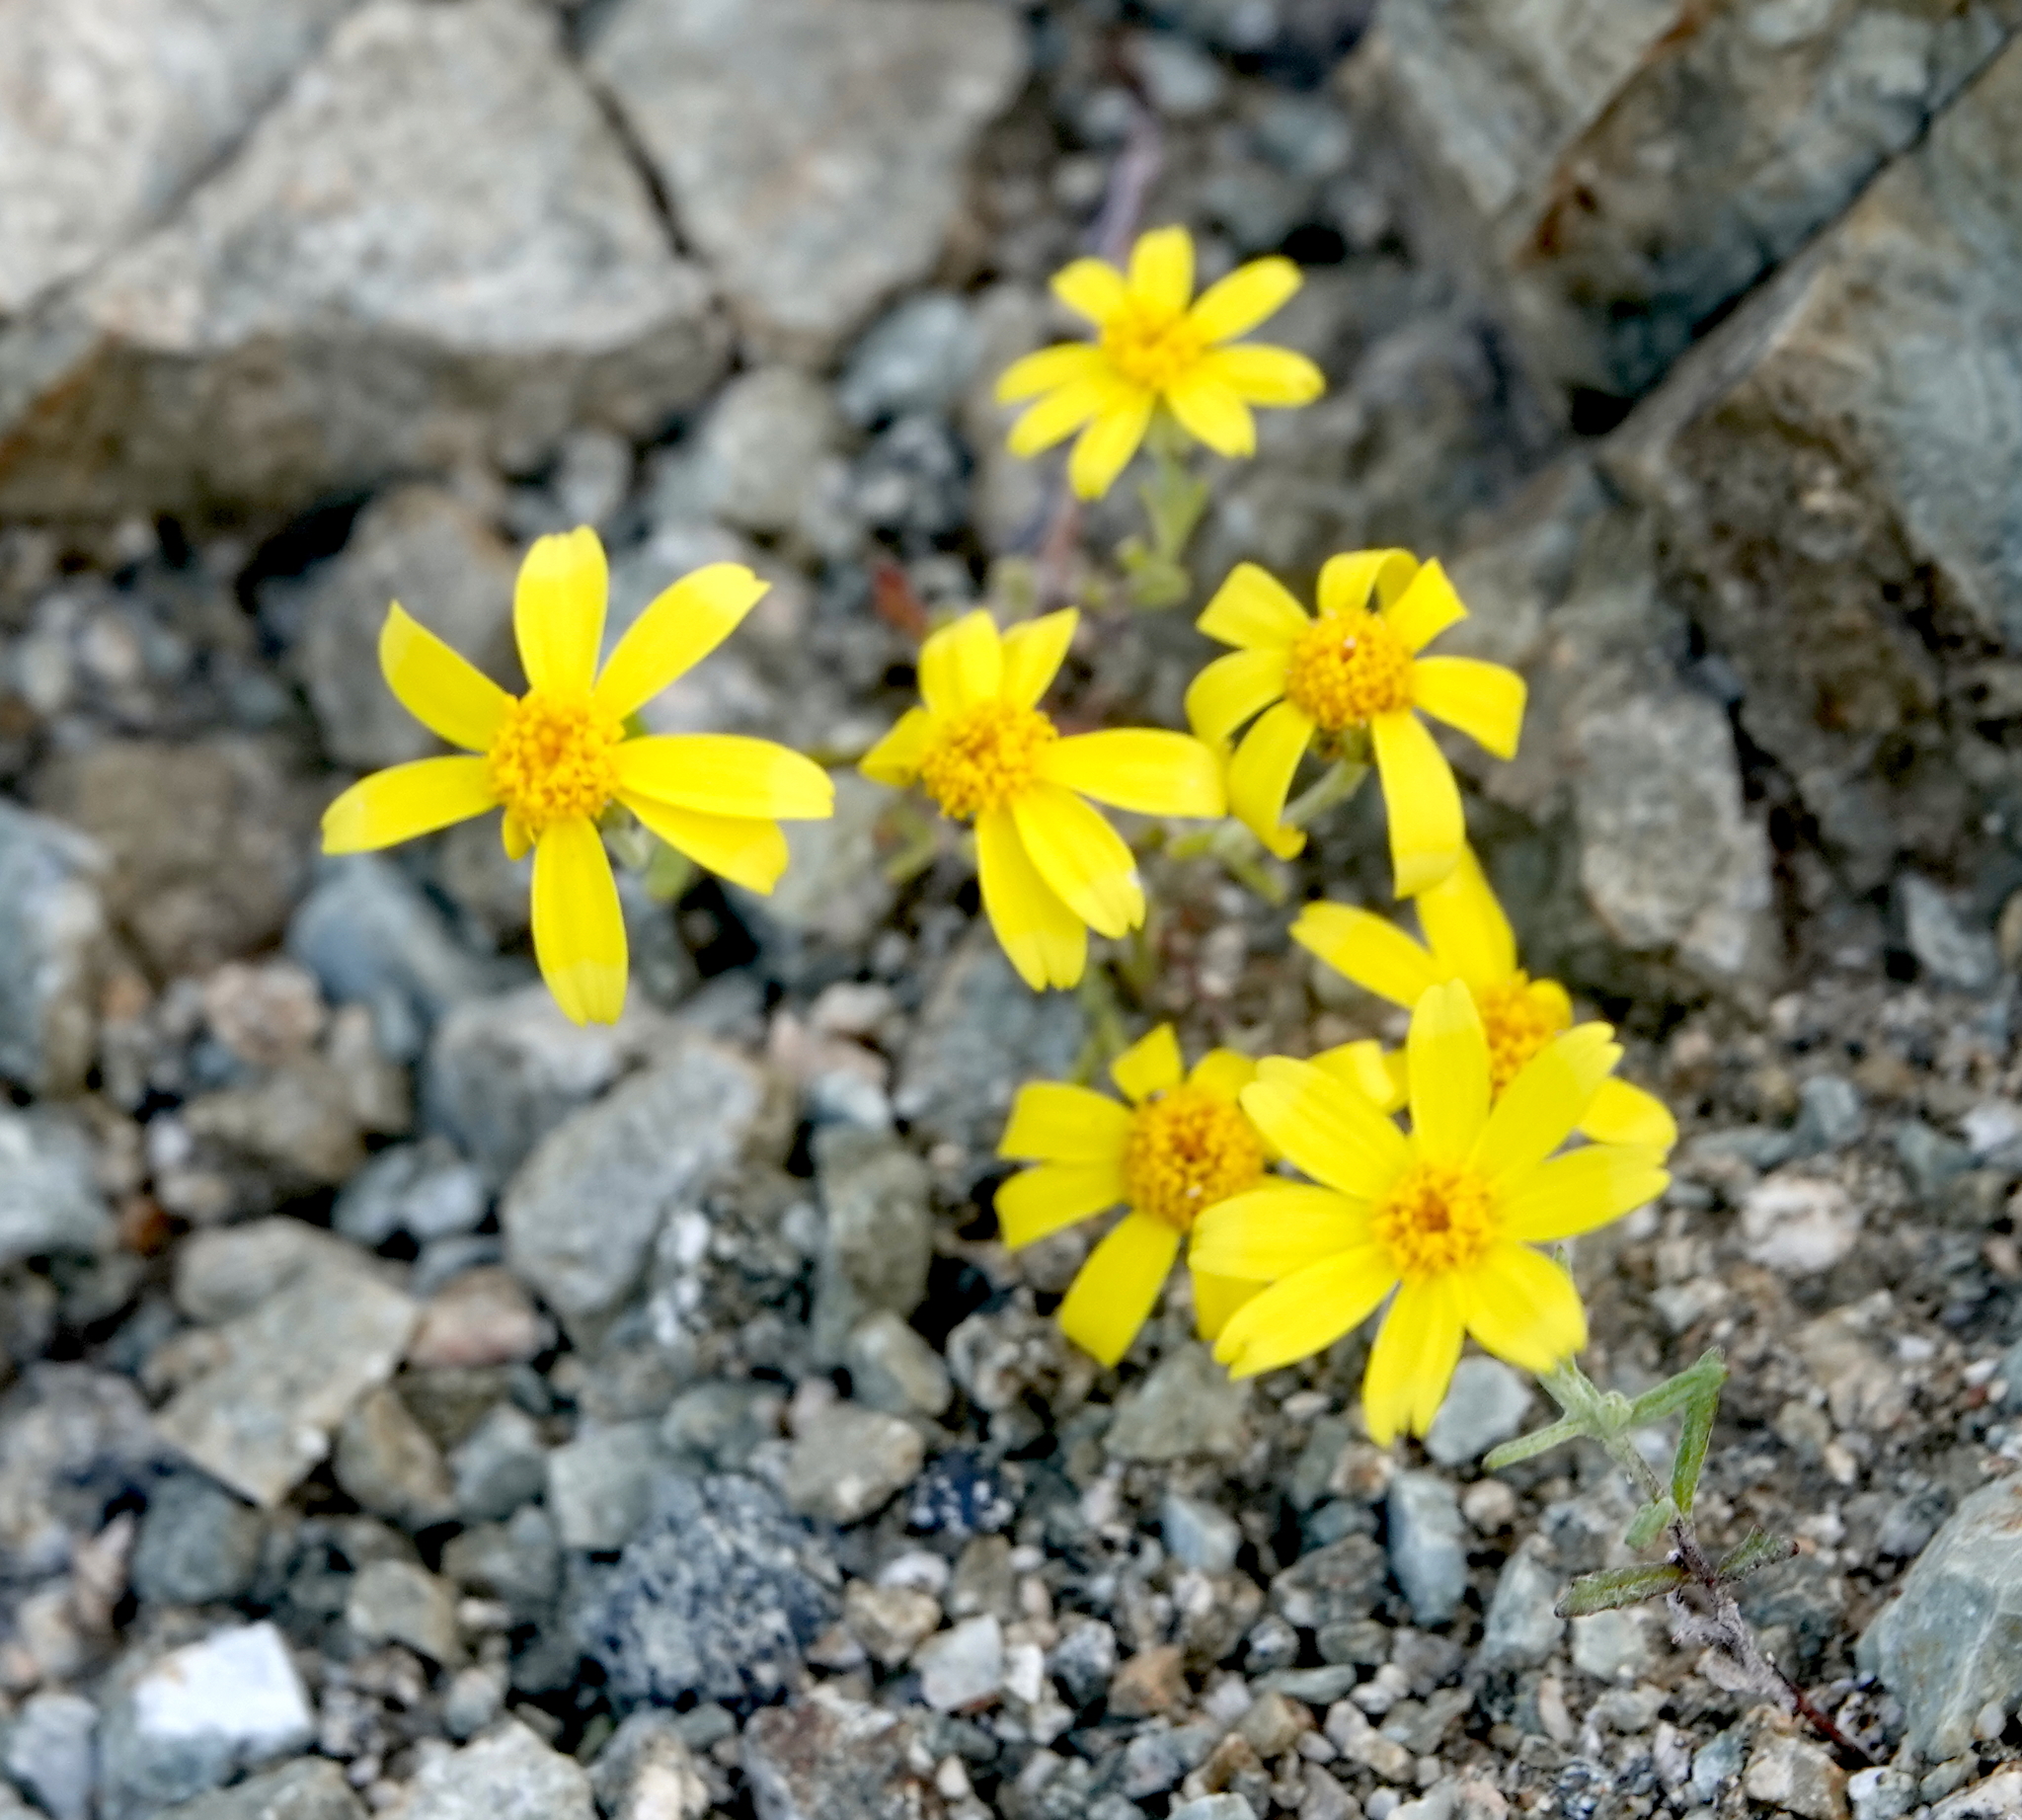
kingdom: Plantae
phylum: Tracheophyta
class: Magnoliopsida
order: Asterales
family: Asteraceae
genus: Pectis
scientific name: Pectis papposa
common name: Many-bristle chinchweed
